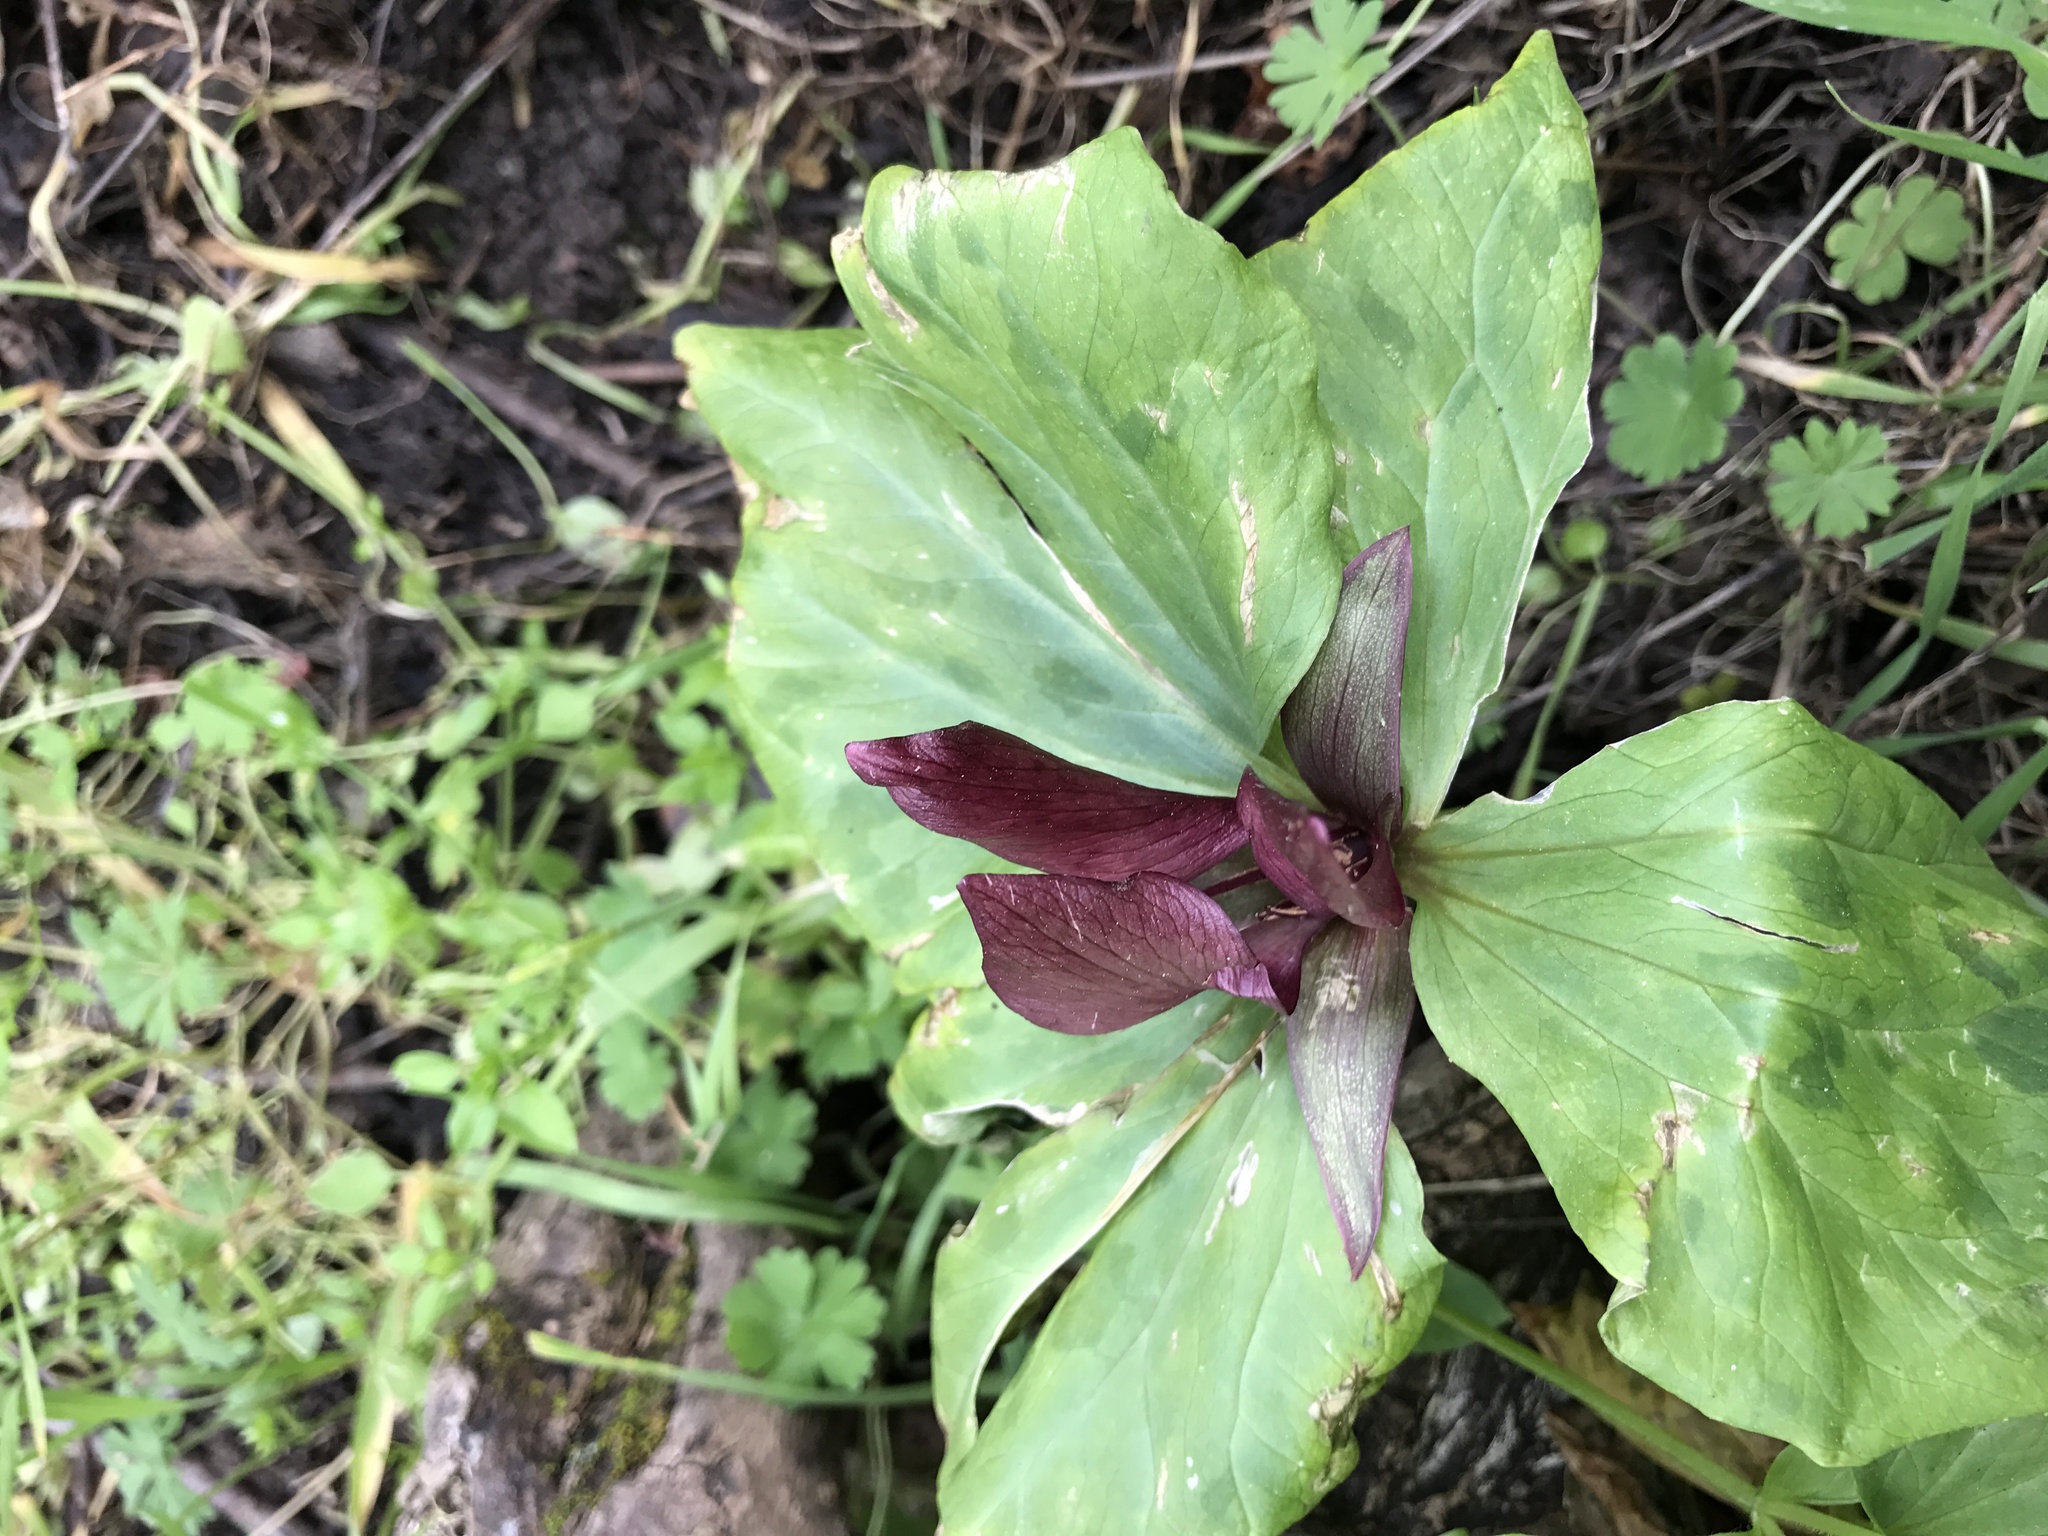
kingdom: Plantae
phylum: Tracheophyta
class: Liliopsida
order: Liliales
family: Melanthiaceae
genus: Trillium
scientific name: Trillium chloropetalum
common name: Giant trillium
